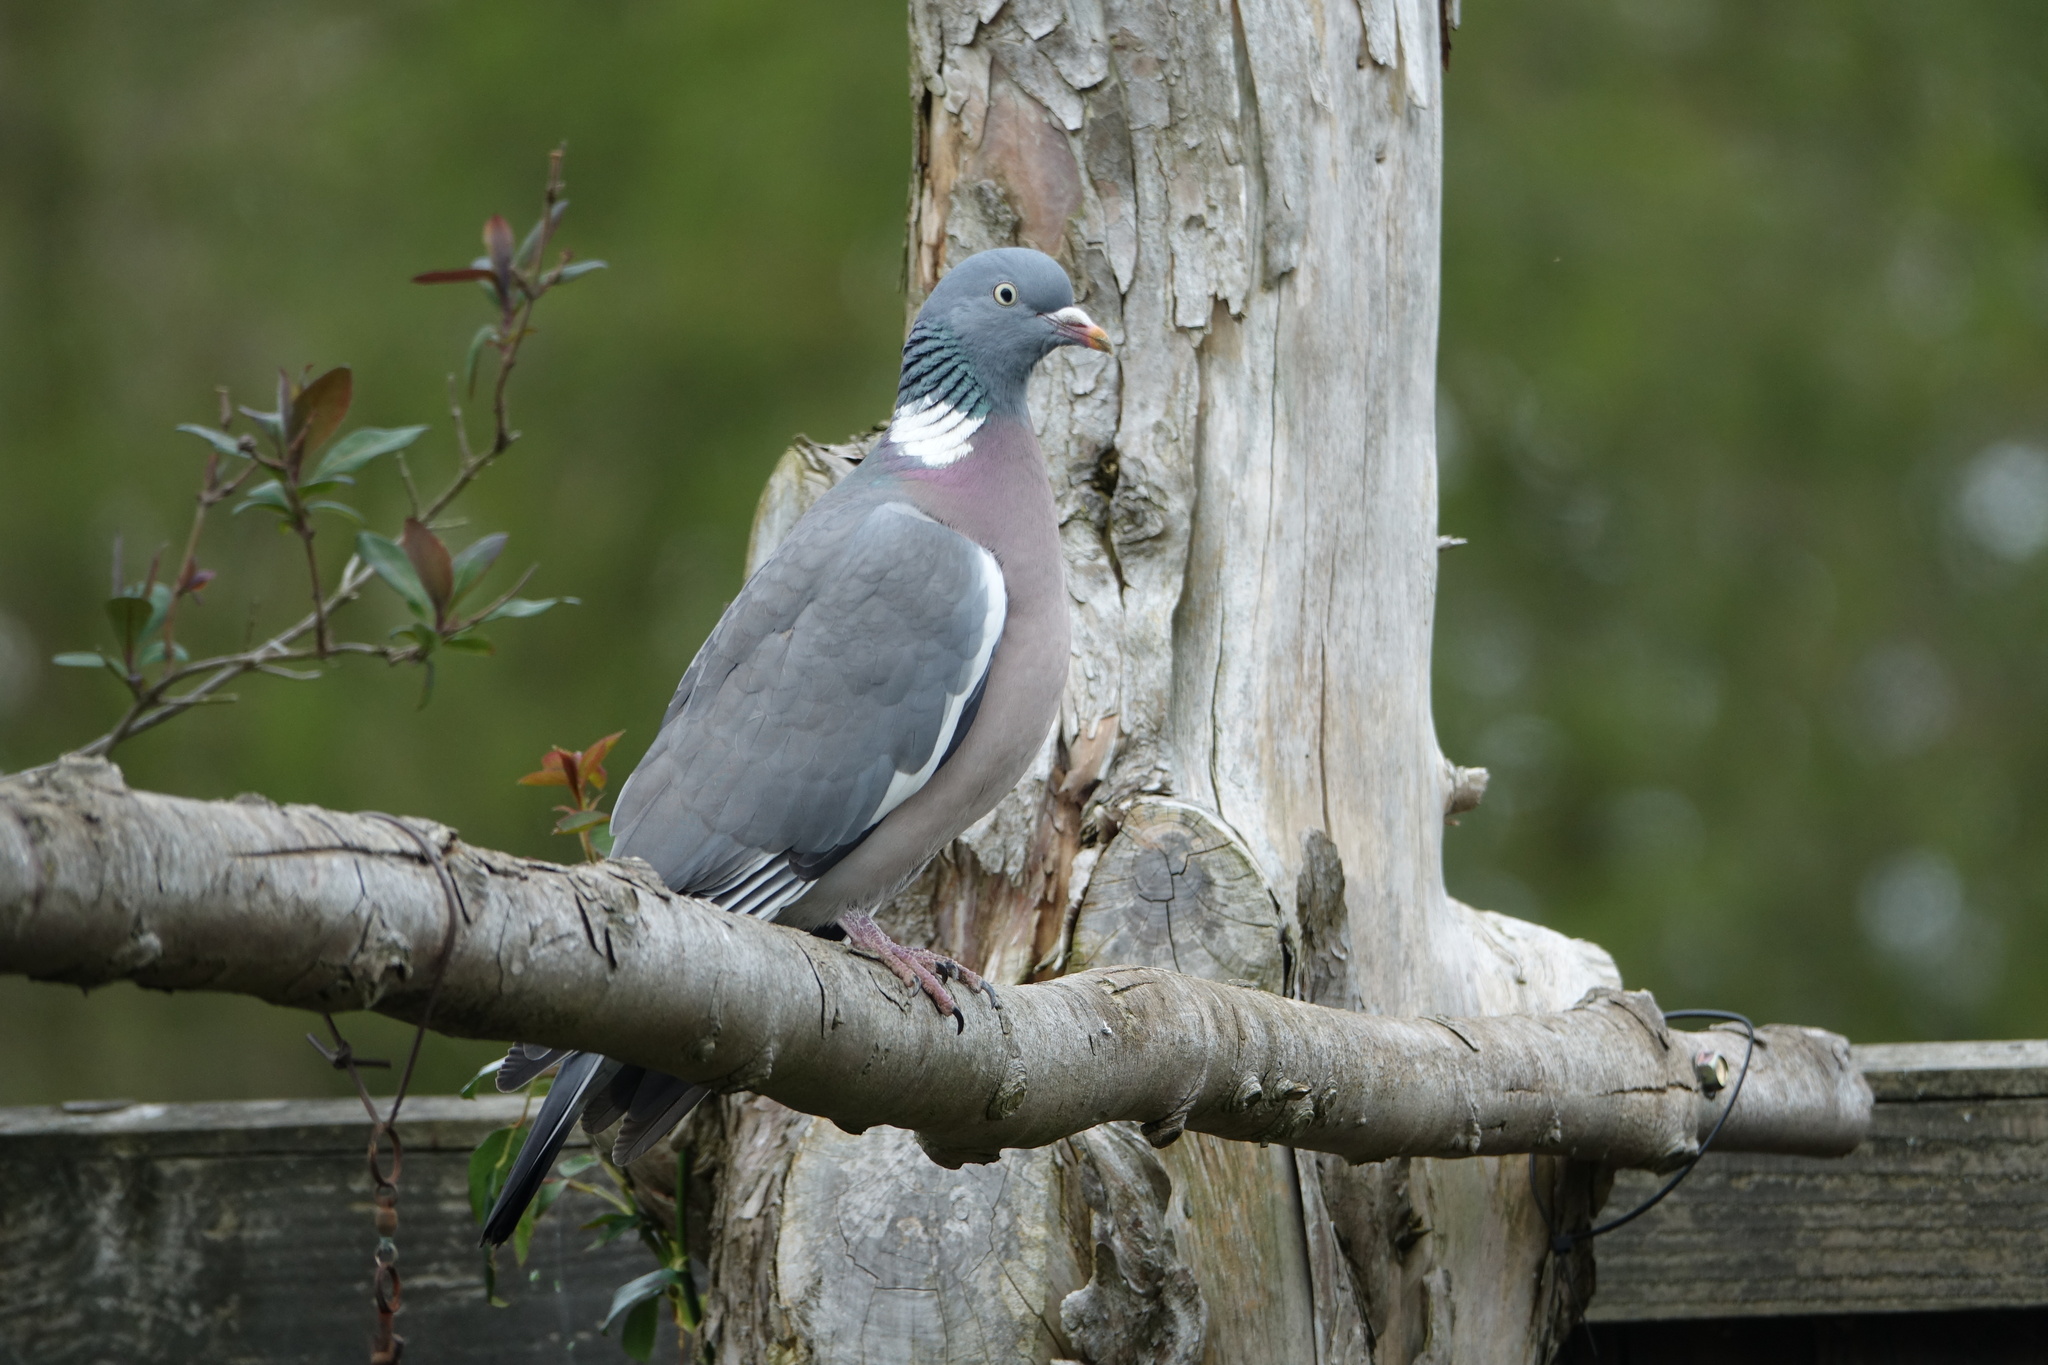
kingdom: Animalia
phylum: Chordata
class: Aves
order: Columbiformes
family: Columbidae
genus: Columba
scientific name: Columba palumbus
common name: Common wood pigeon
